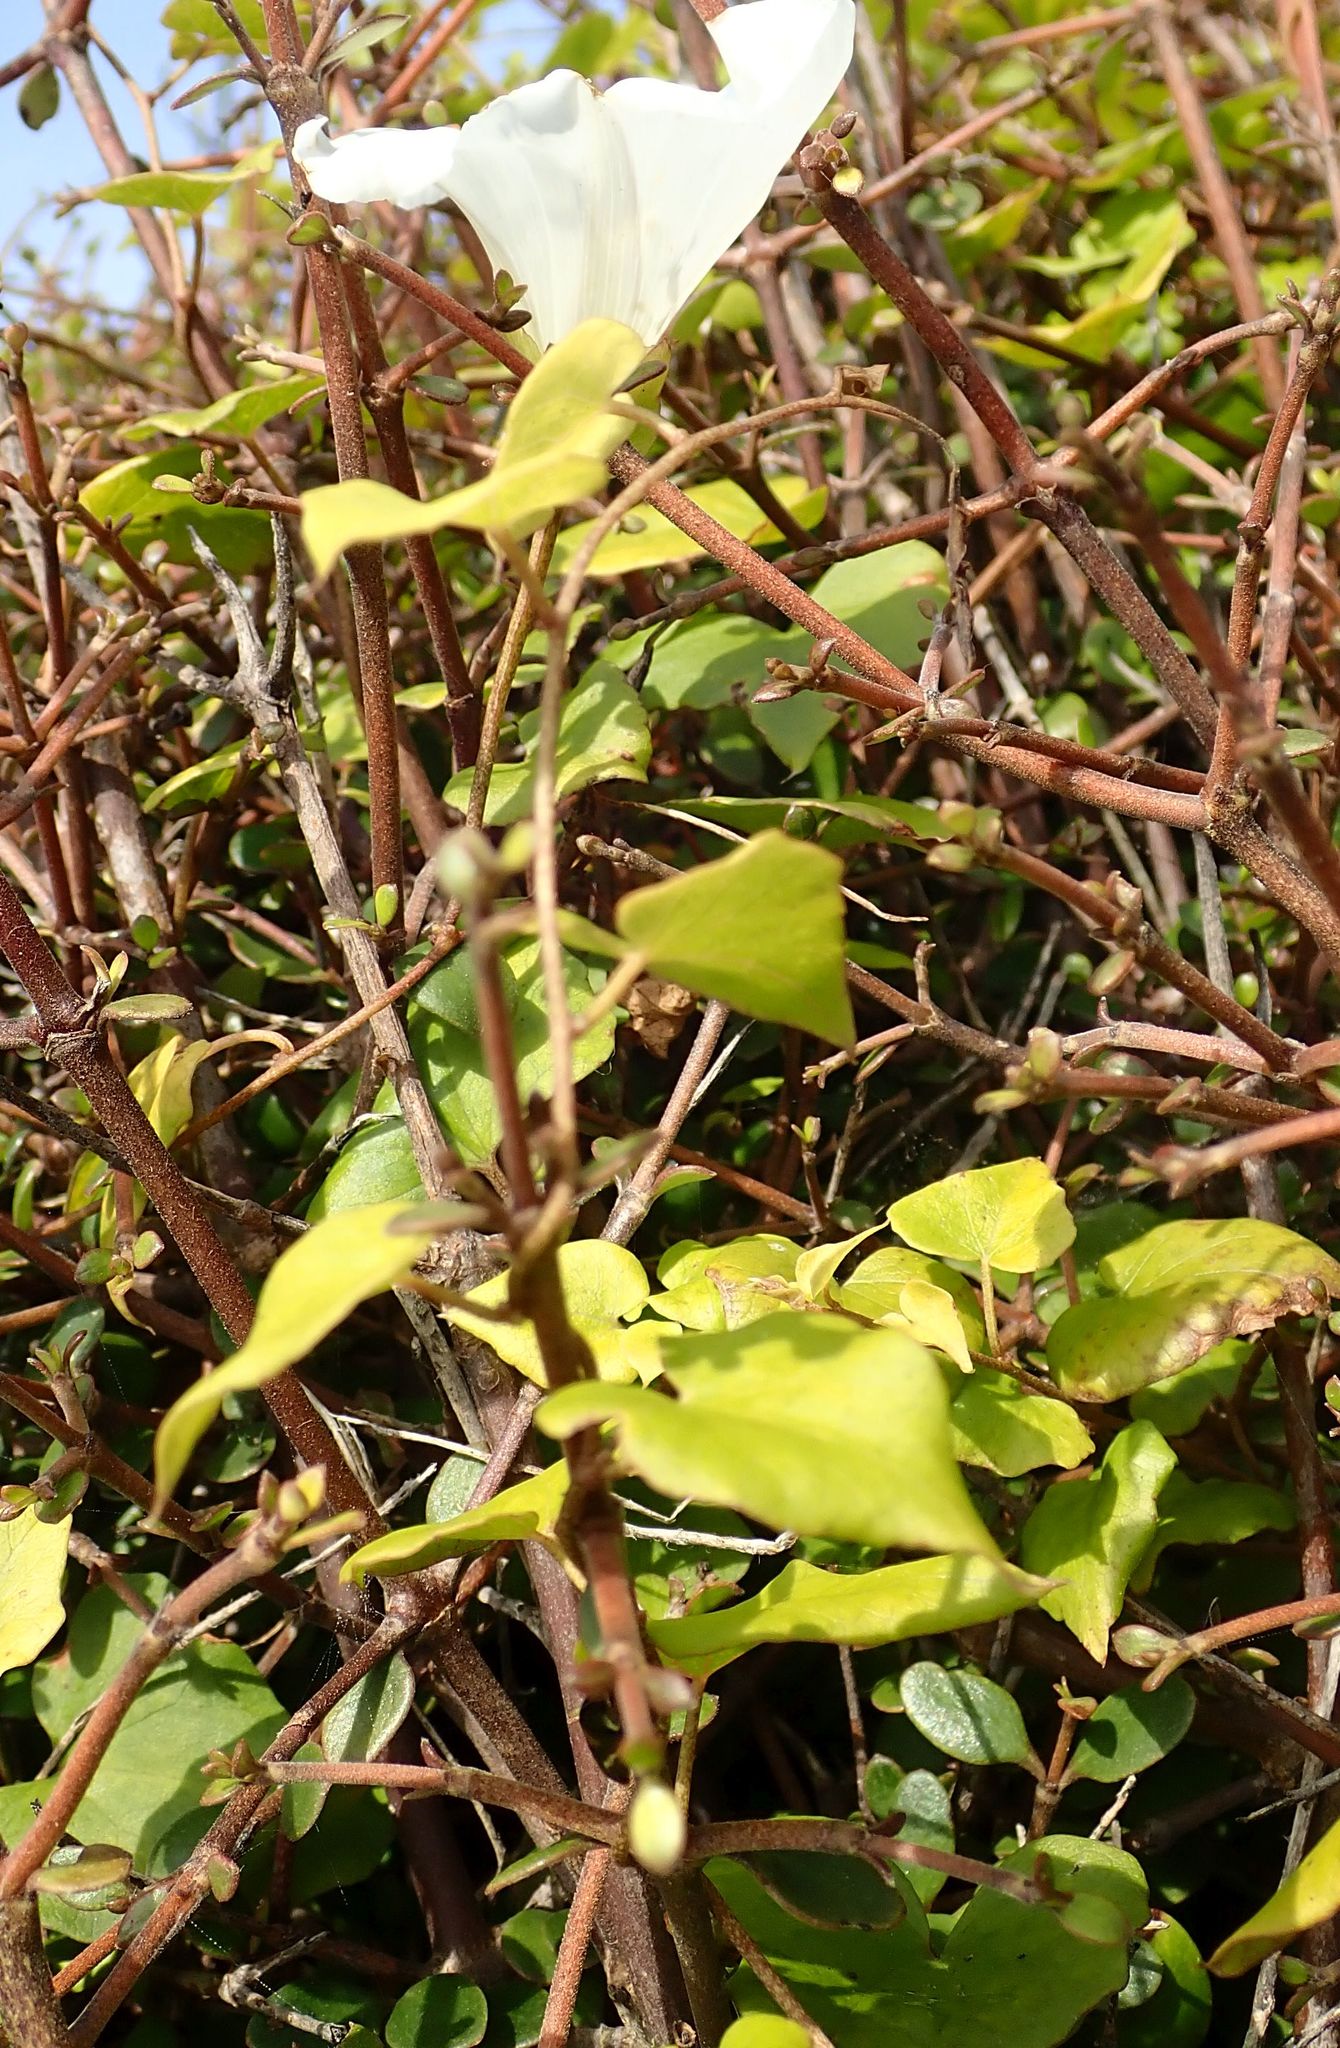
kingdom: Plantae
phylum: Tracheophyta
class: Magnoliopsida
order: Solanales
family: Convolvulaceae
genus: Calystegia
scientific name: Calystegia tuguriorum
